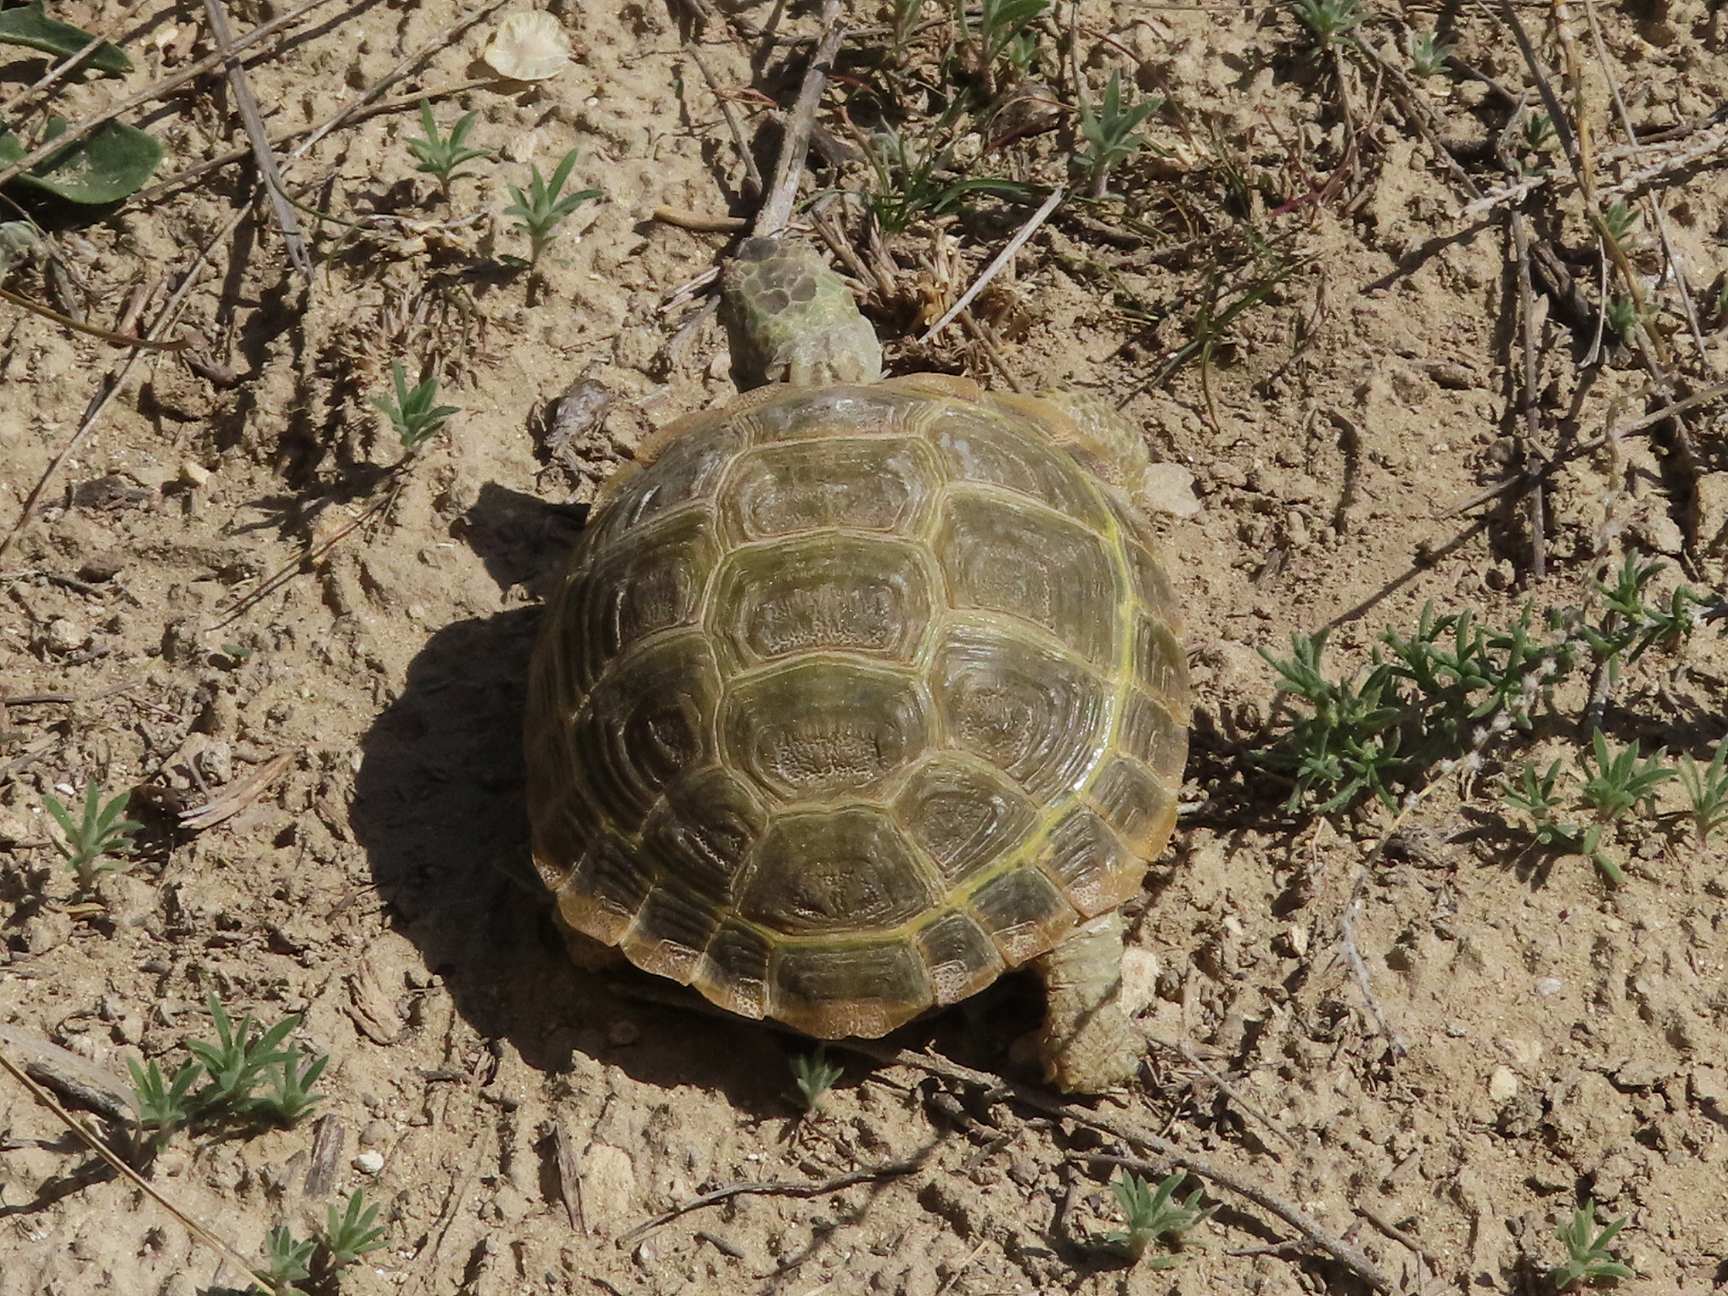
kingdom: Animalia
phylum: Chordata
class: Testudines
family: Testudinidae
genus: Testudo
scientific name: Testudo horsfieldii
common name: Central asia tortoise
